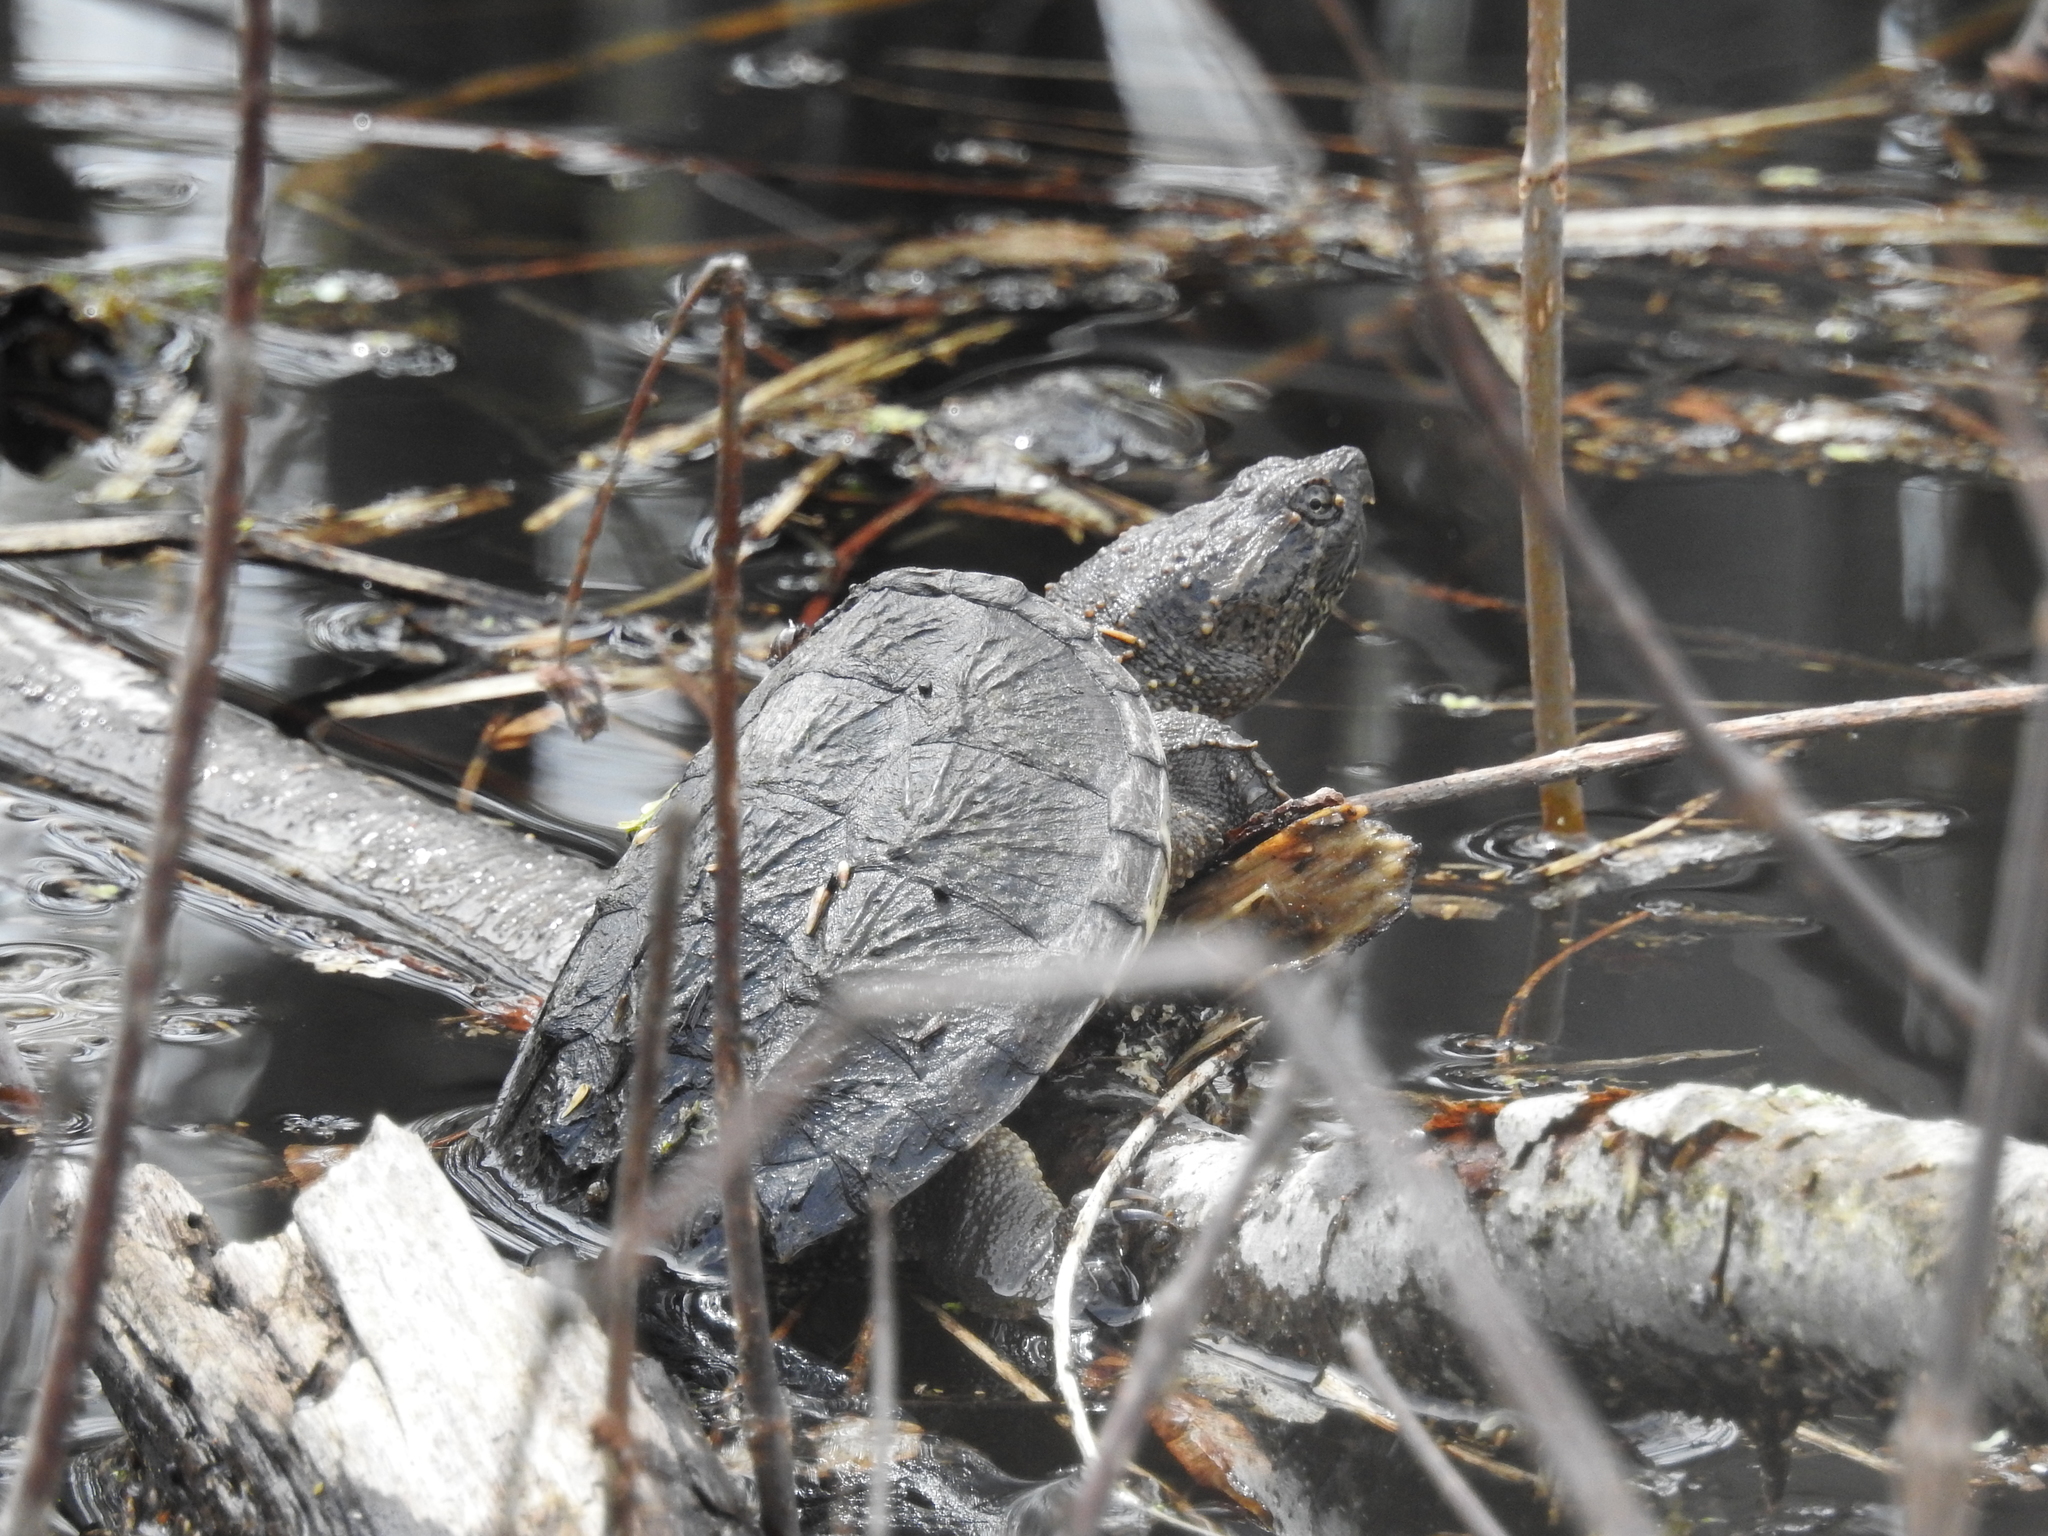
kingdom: Animalia
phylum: Chordata
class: Testudines
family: Chelydridae
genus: Chelydra
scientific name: Chelydra serpentina
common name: Common snapping turtle
